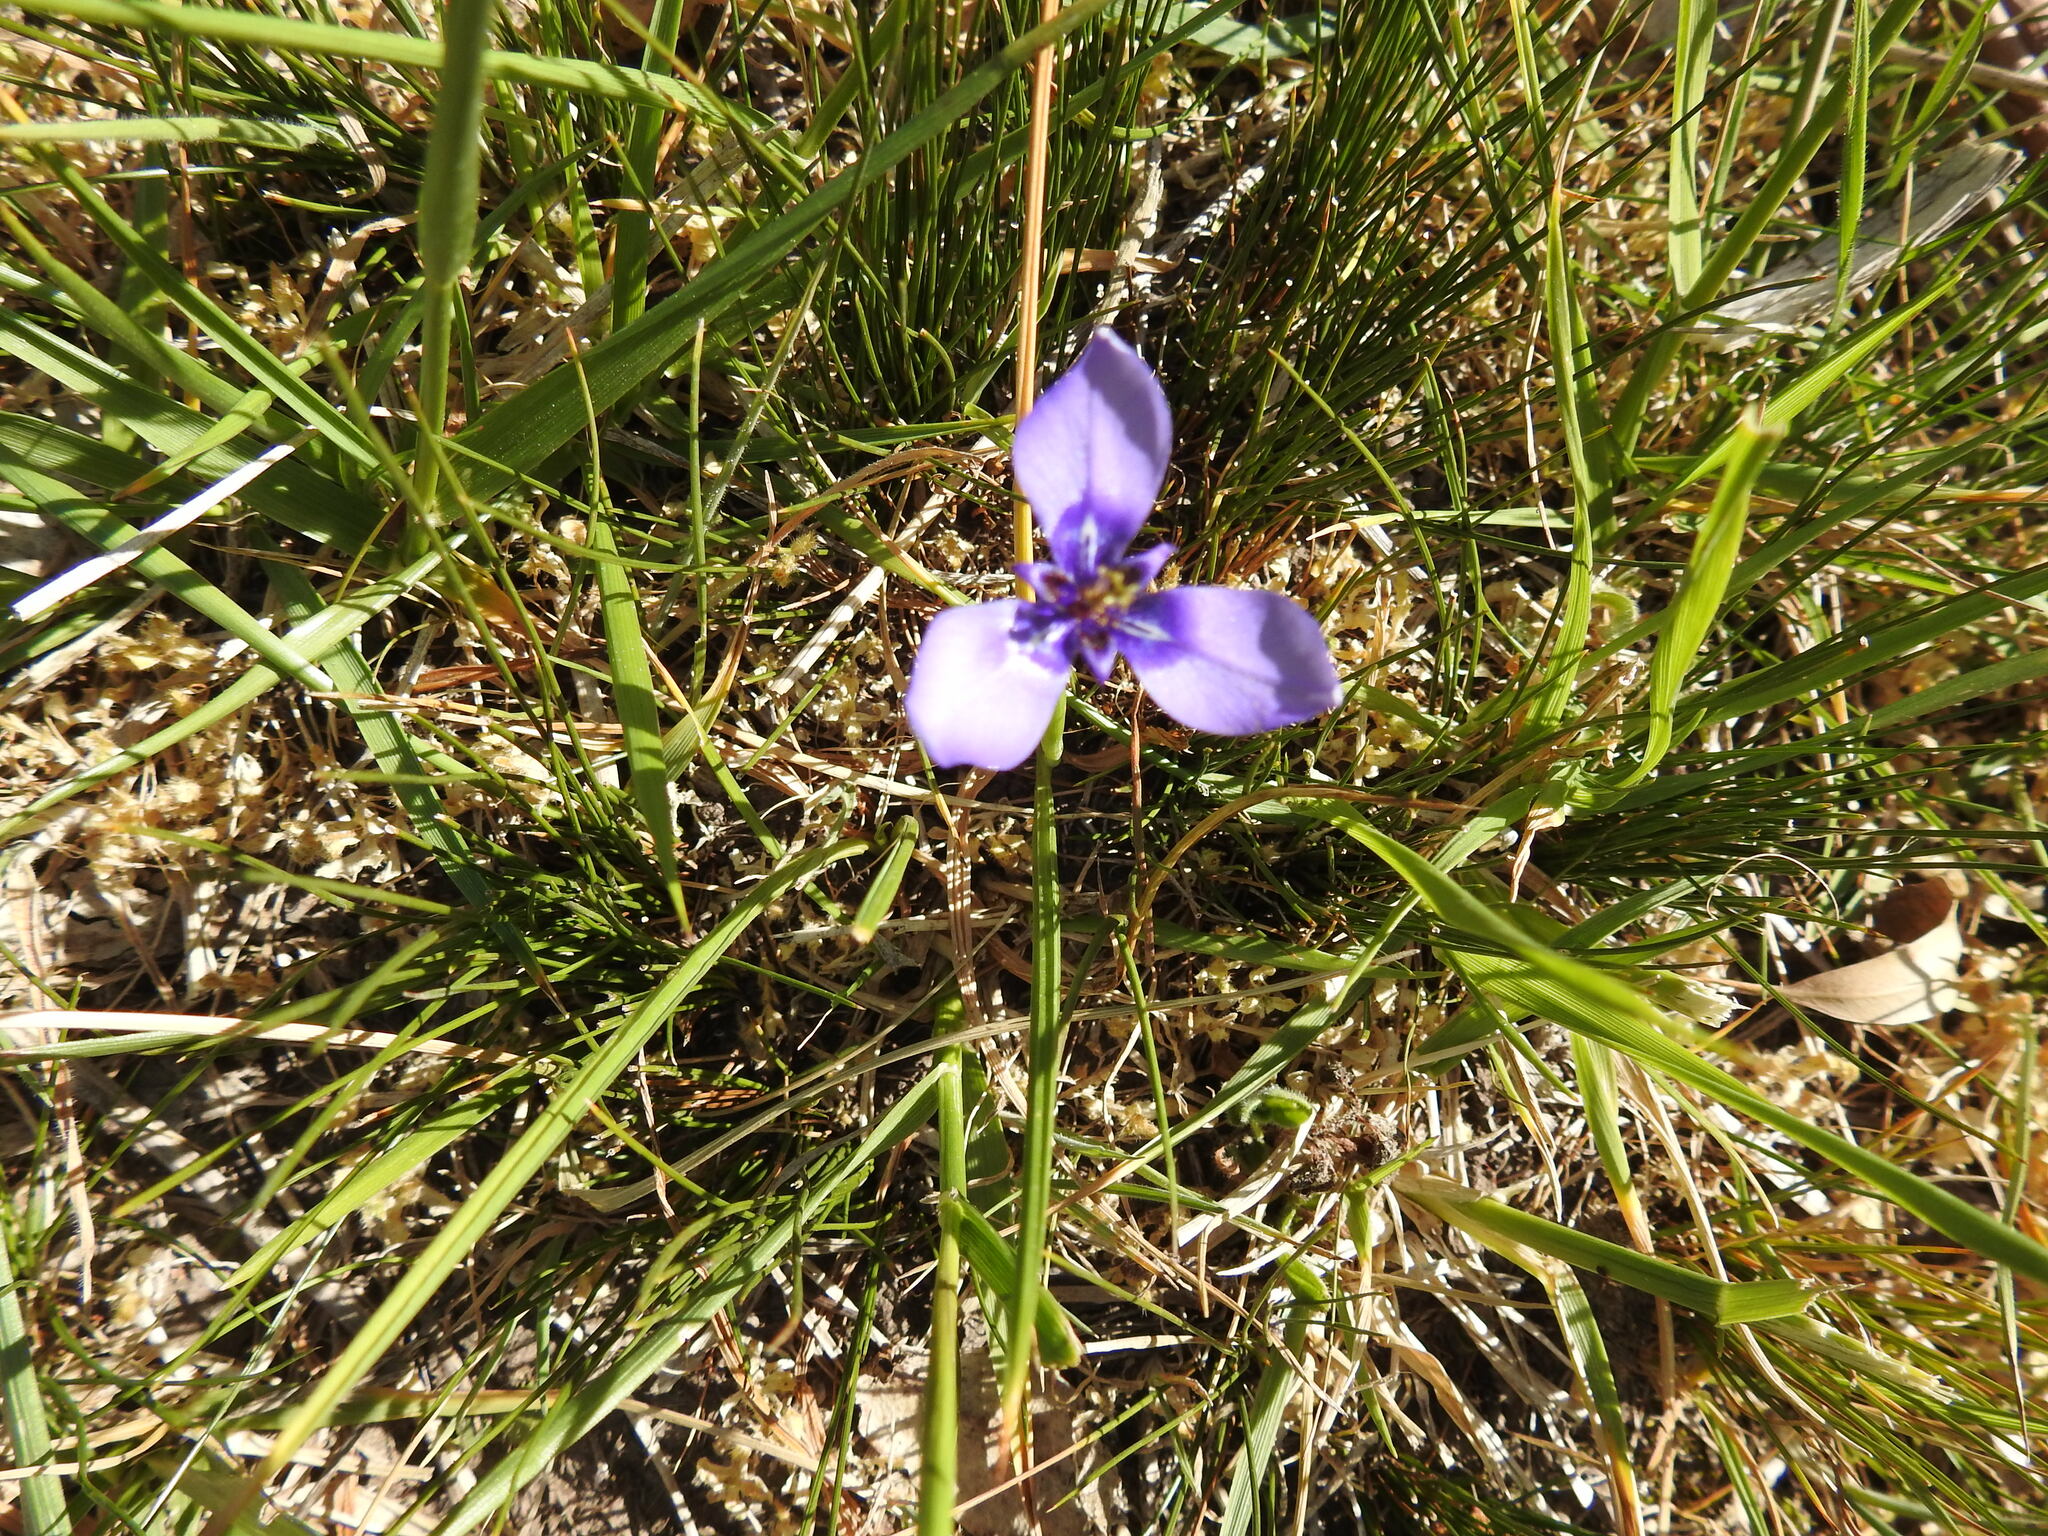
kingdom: Plantae
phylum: Tracheophyta
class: Liliopsida
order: Asparagales
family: Iridaceae
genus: Herbertia
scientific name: Herbertia lahue
